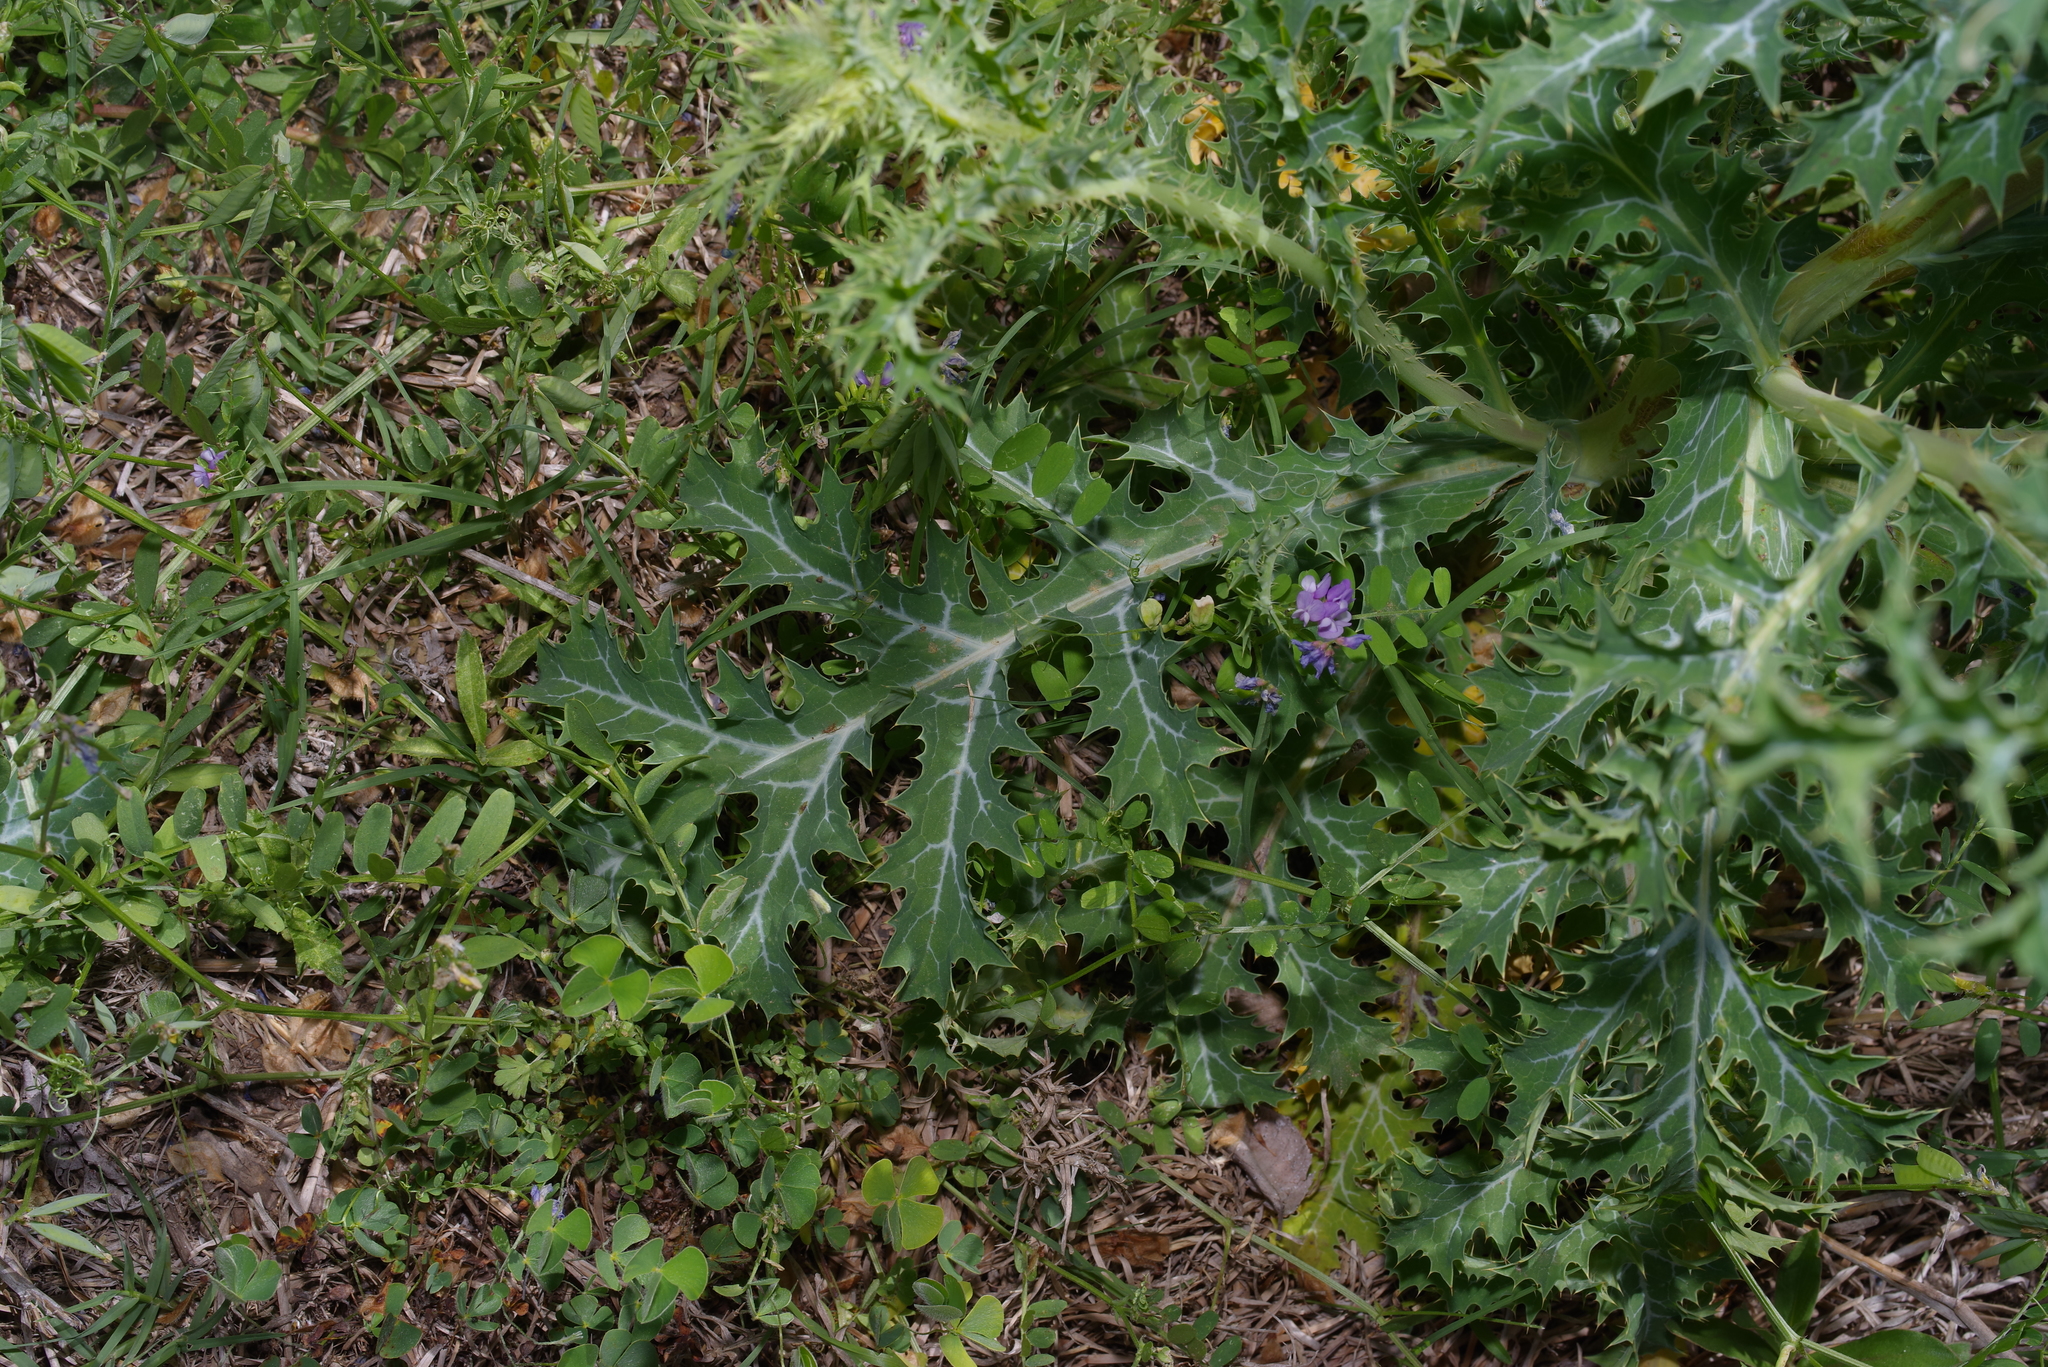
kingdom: Plantae
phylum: Tracheophyta
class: Magnoliopsida
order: Ranunculales
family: Papaveraceae
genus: Argemone
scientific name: Argemone albiflora
